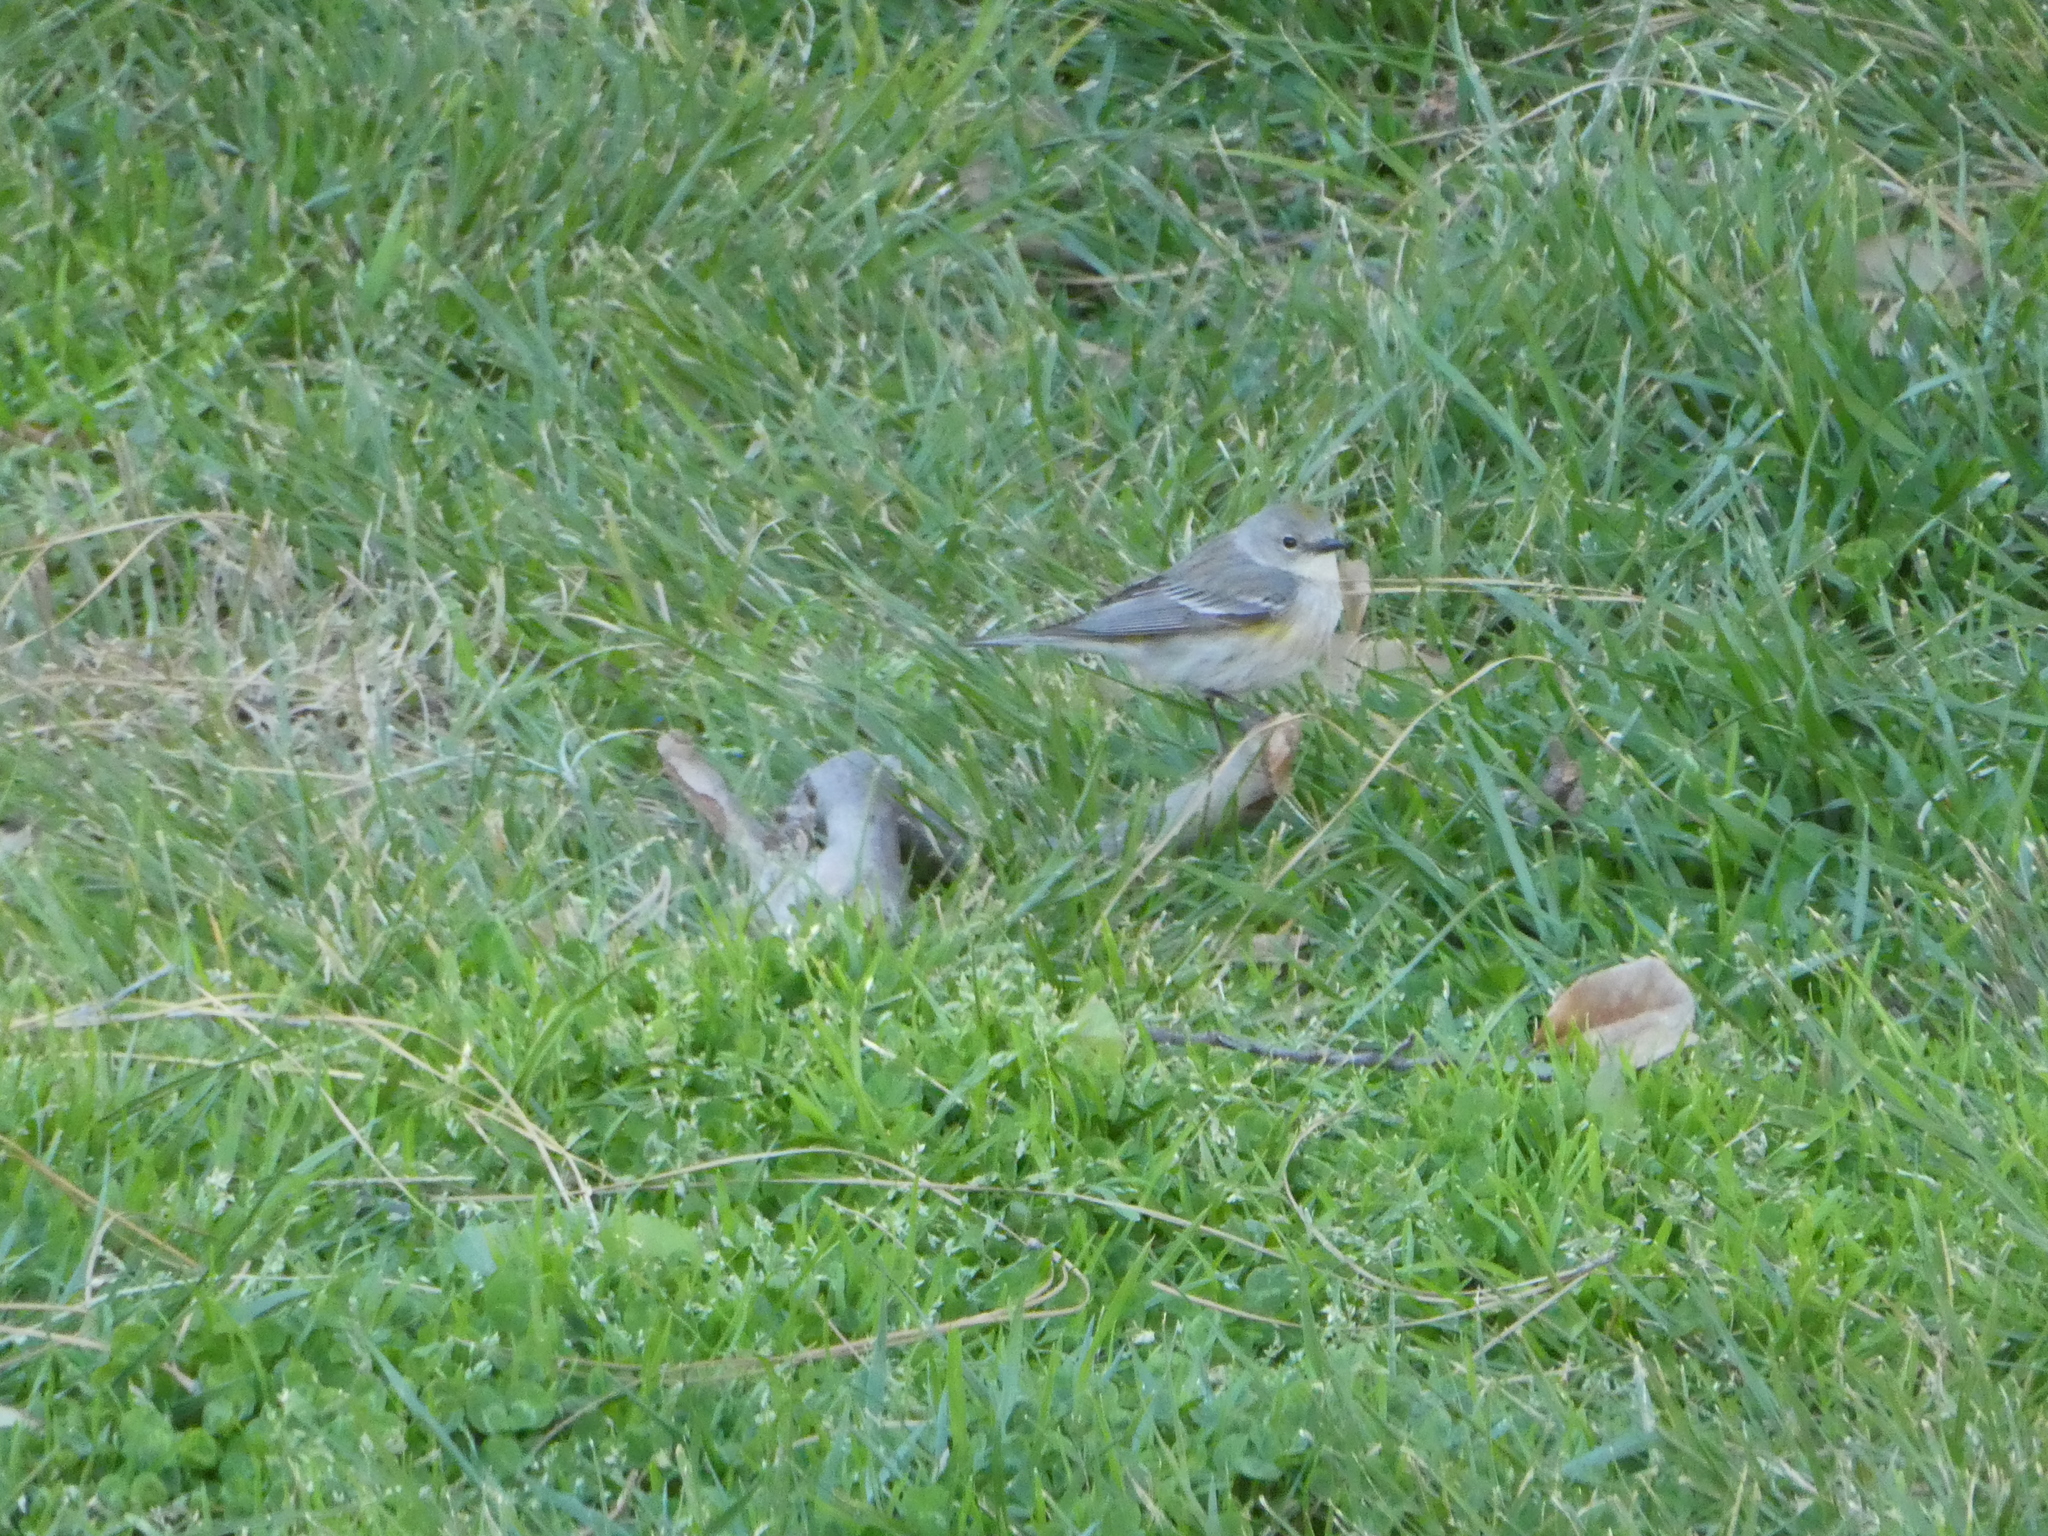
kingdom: Animalia
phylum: Chordata
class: Aves
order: Passeriformes
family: Parulidae
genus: Setophaga
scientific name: Setophaga coronata
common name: Myrtle warbler
